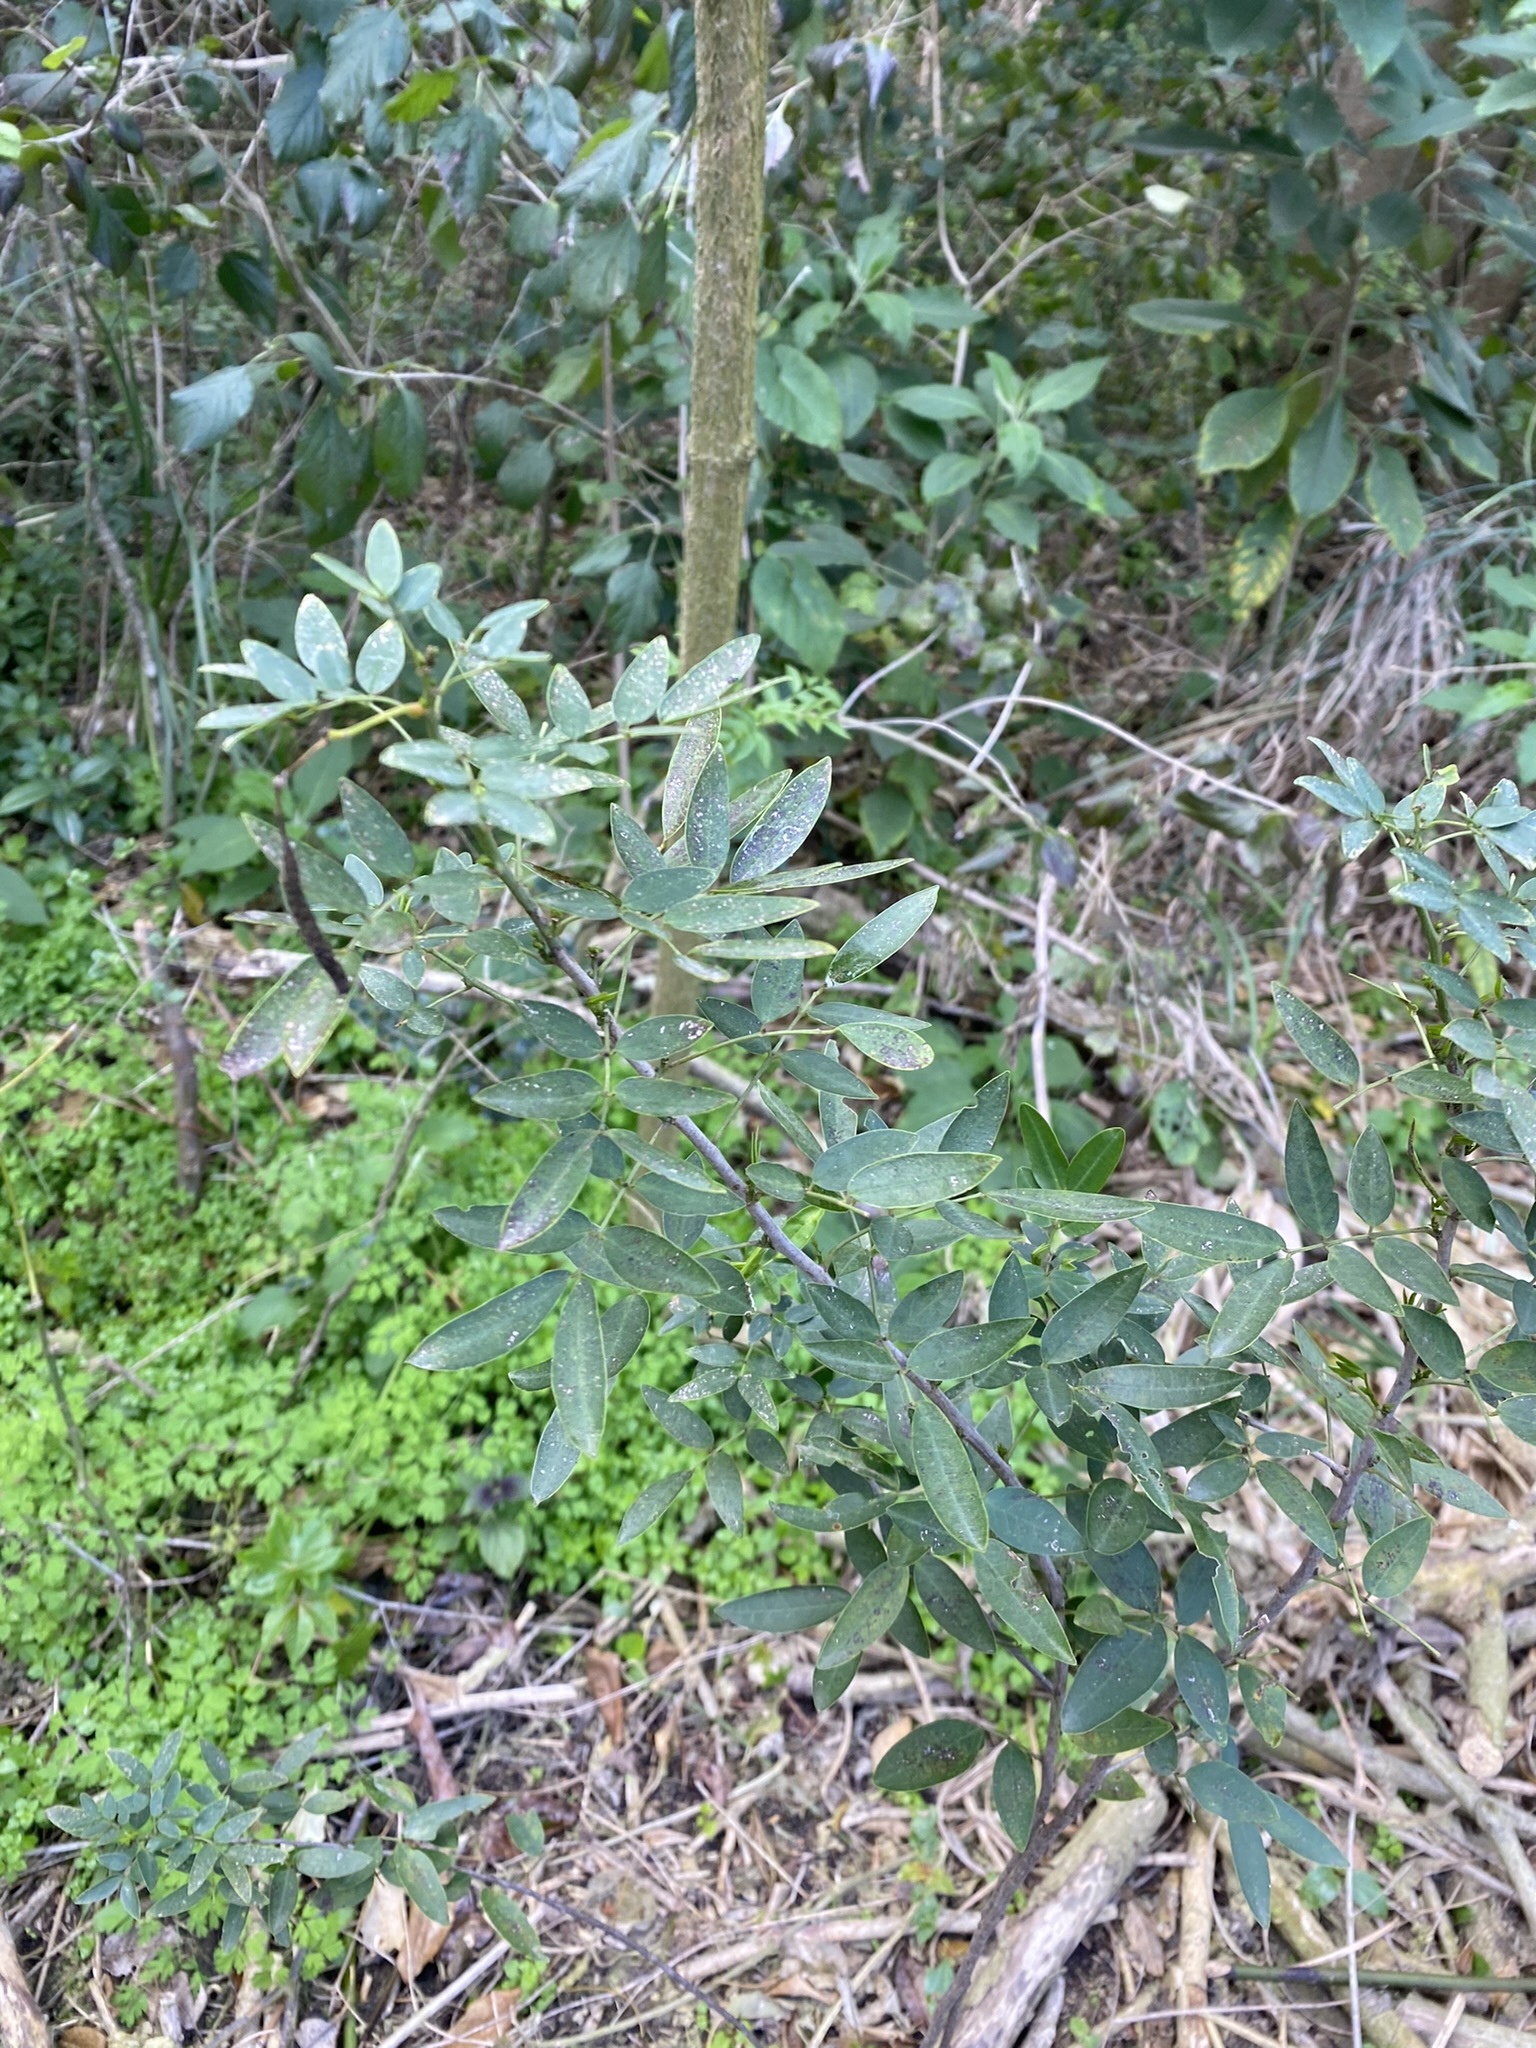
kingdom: Plantae
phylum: Tracheophyta
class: Magnoliopsida
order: Fabales
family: Fabaceae
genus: Senna
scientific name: Senna corymbosa
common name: Argentine senna
